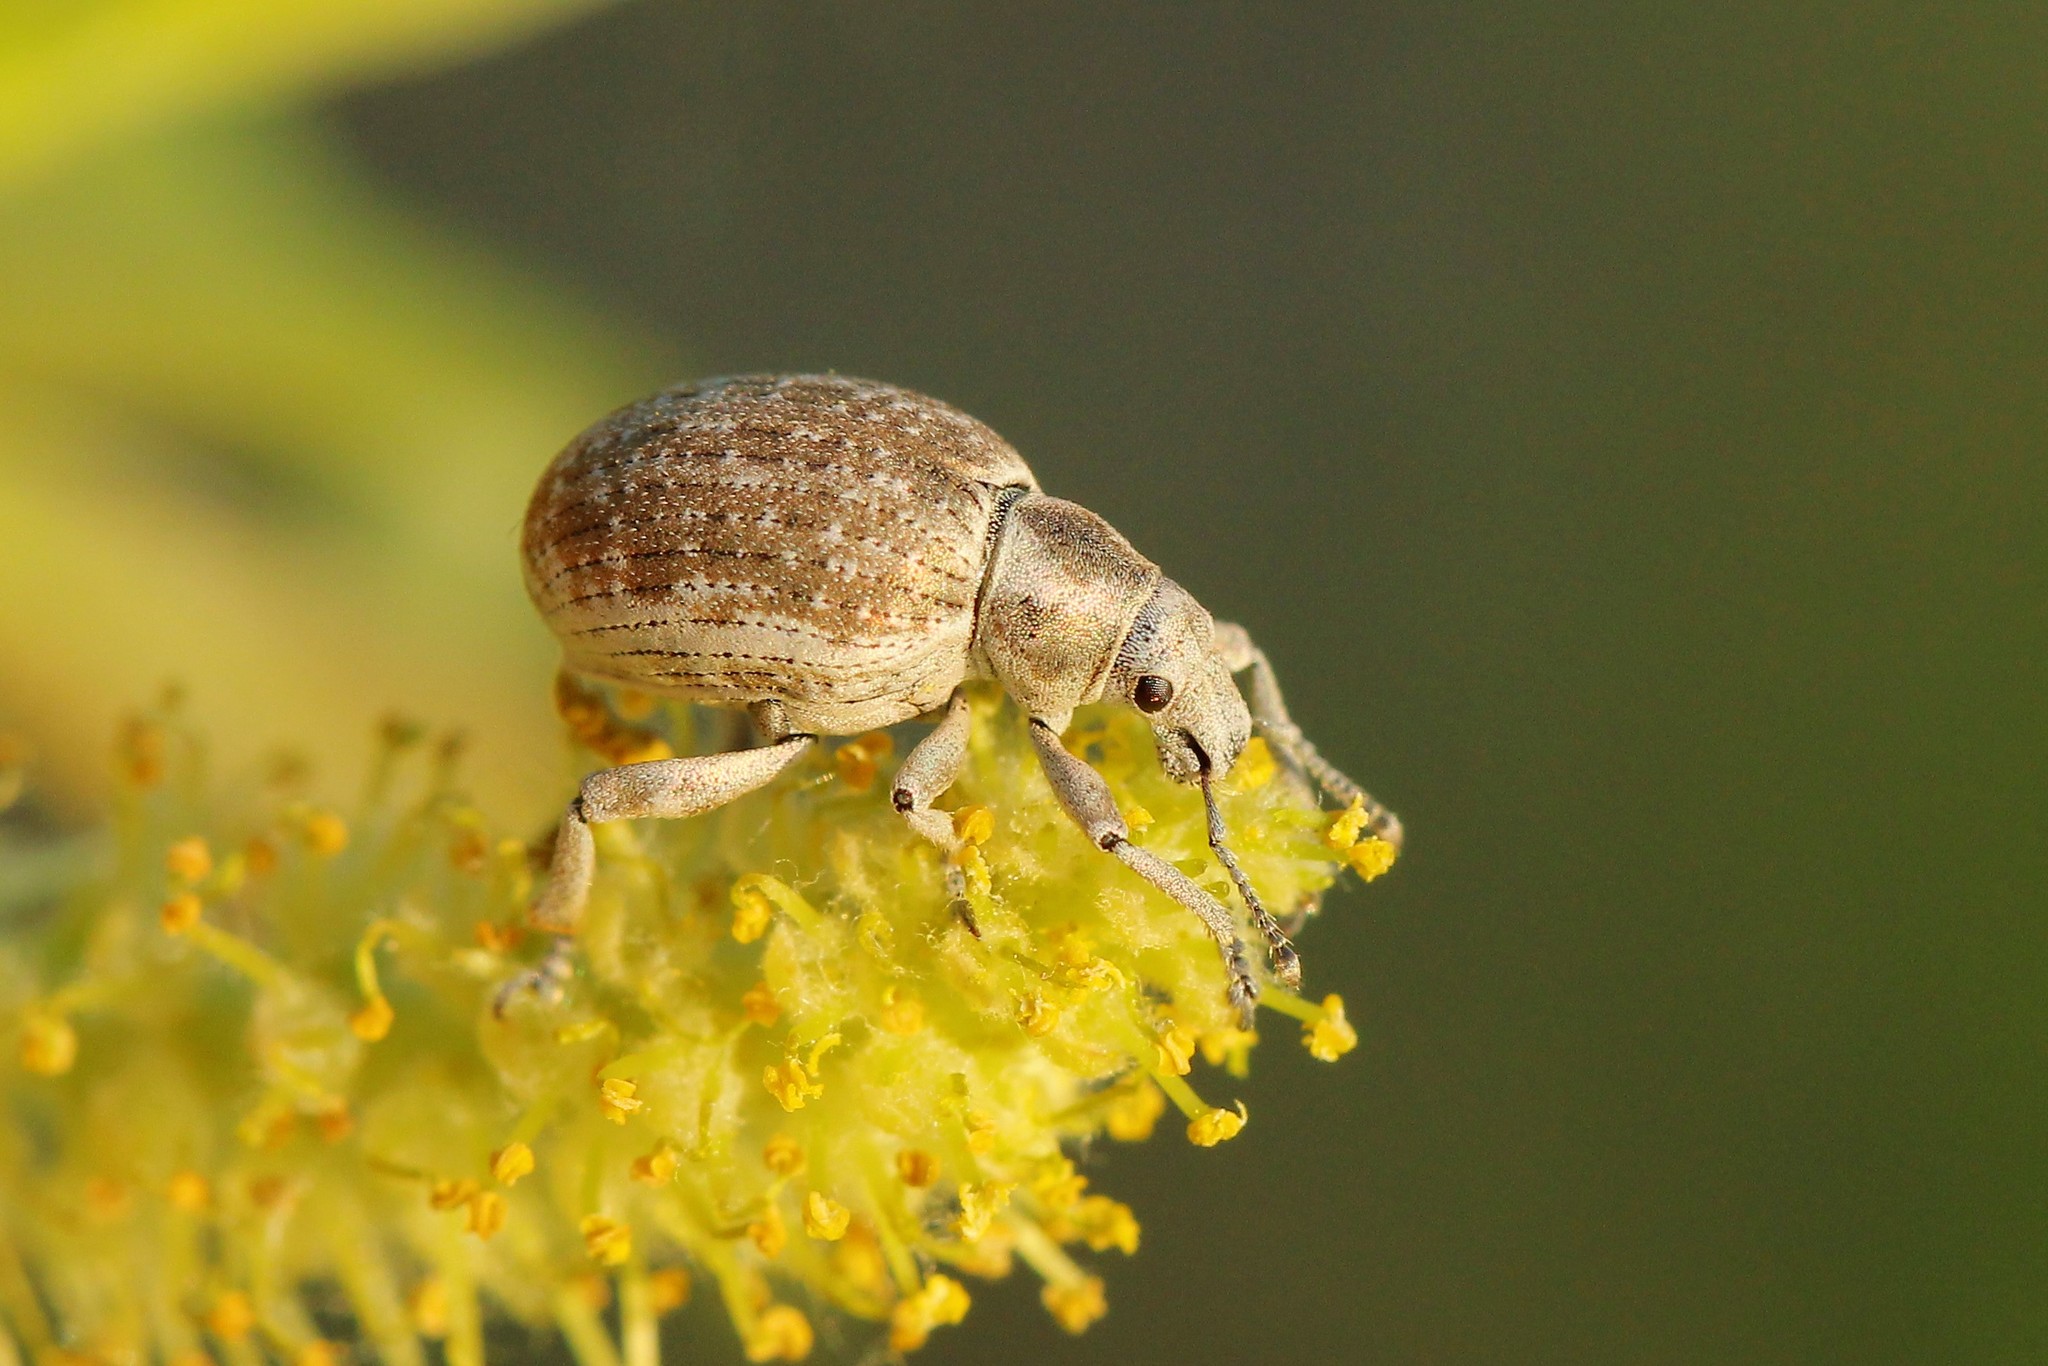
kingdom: Animalia
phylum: Arthropoda
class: Insecta
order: Coleoptera
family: Curculionidae
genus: Attactagenus
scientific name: Attactagenus albinus
